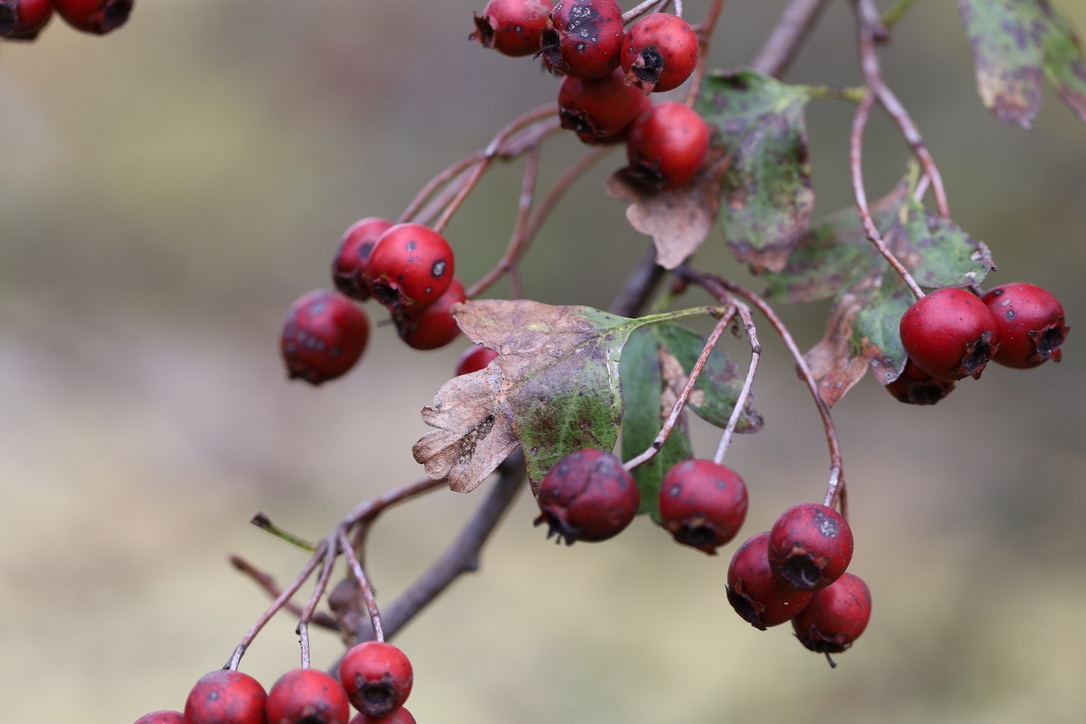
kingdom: Plantae
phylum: Tracheophyta
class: Magnoliopsida
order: Rosales
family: Rosaceae
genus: Crataegus
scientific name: Crataegus monogyna
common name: Hawthorn
